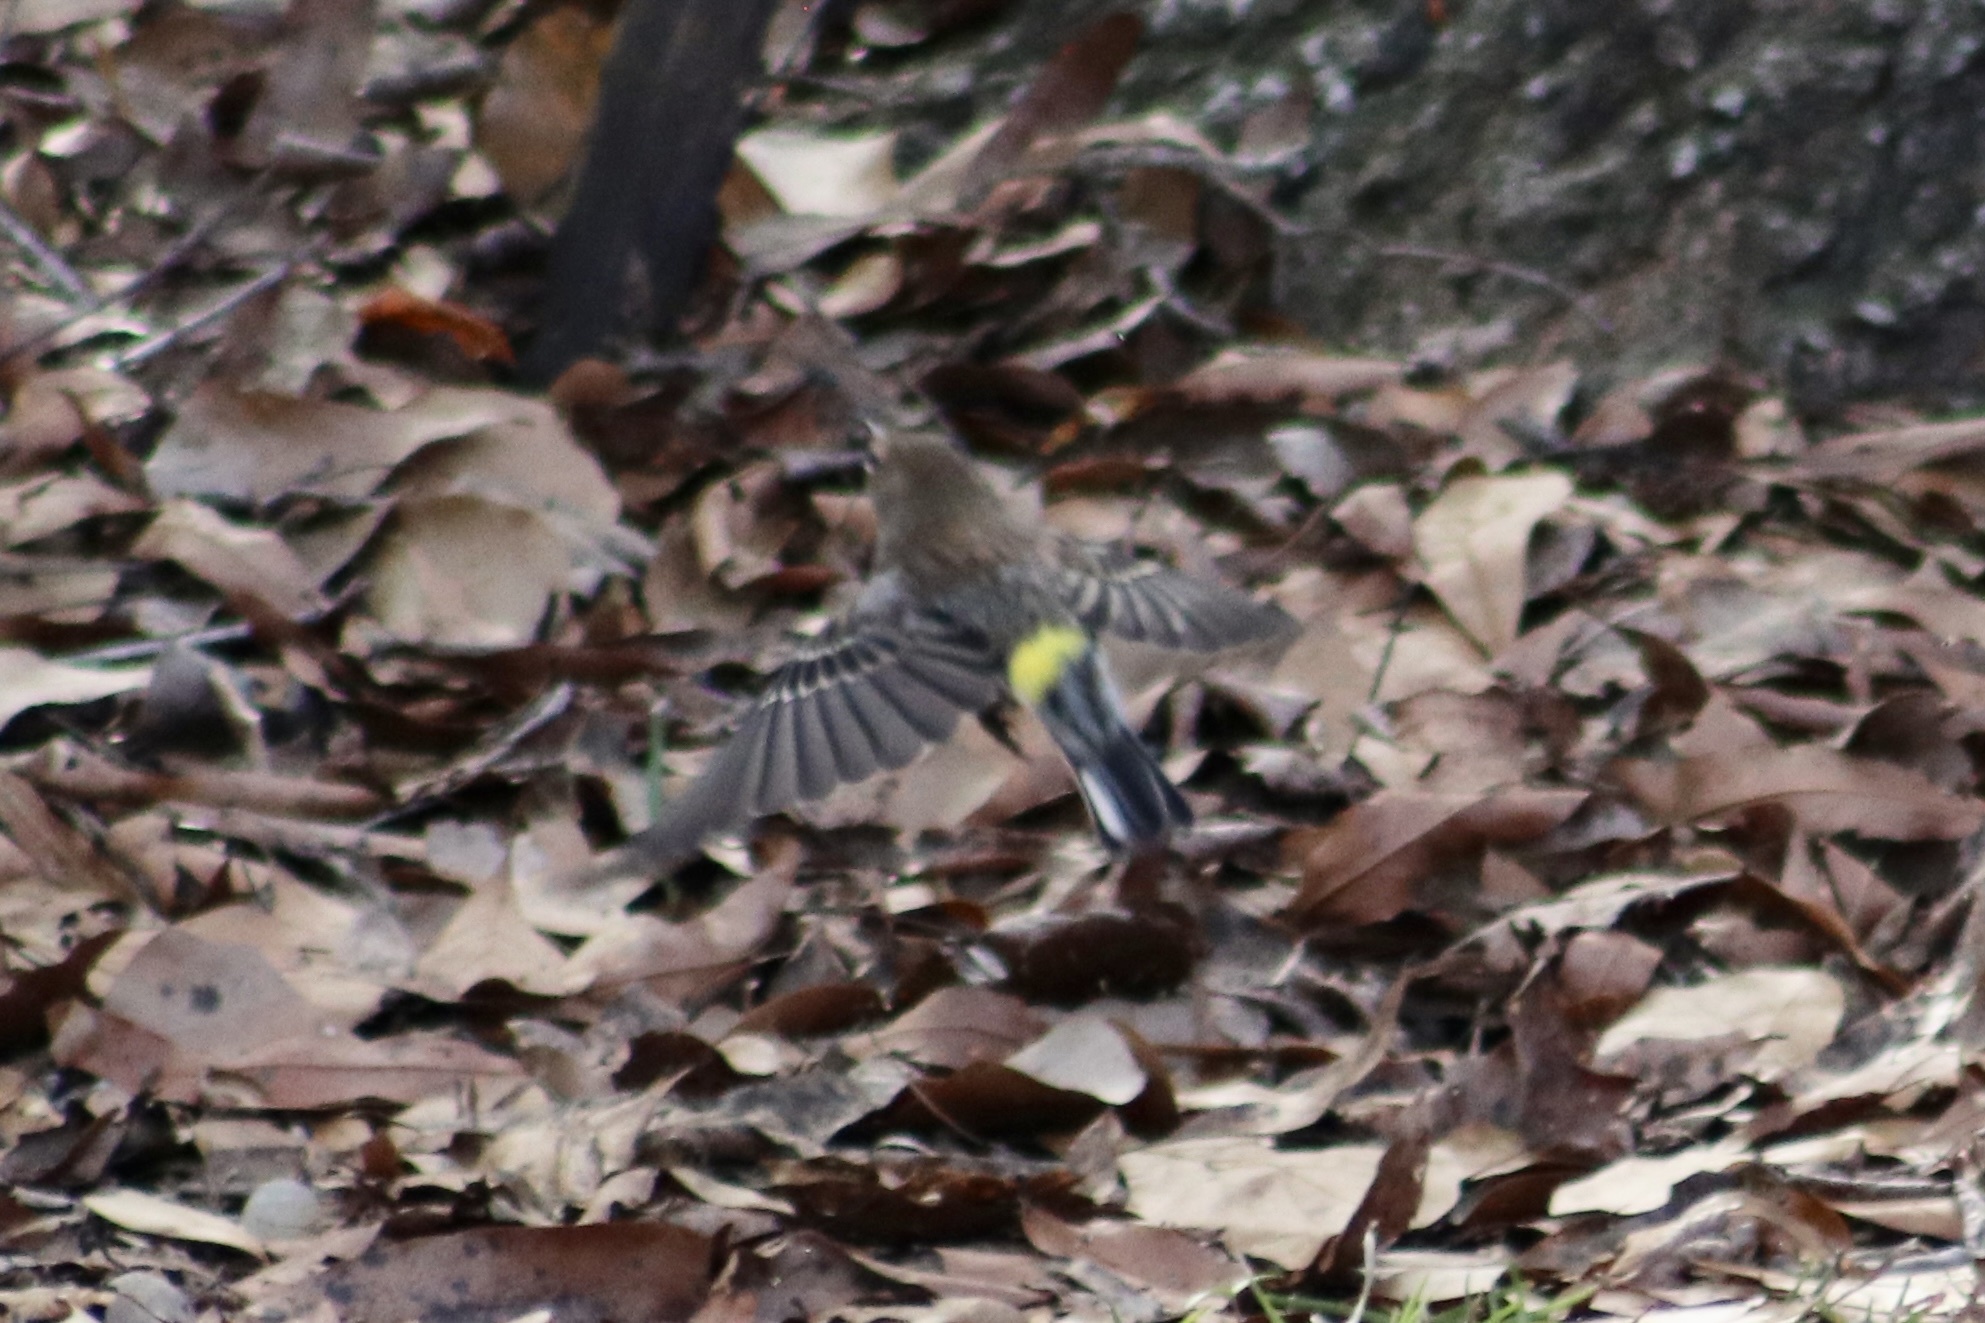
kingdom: Animalia
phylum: Chordata
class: Aves
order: Passeriformes
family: Parulidae
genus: Setophaga
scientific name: Setophaga coronata
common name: Myrtle warbler
